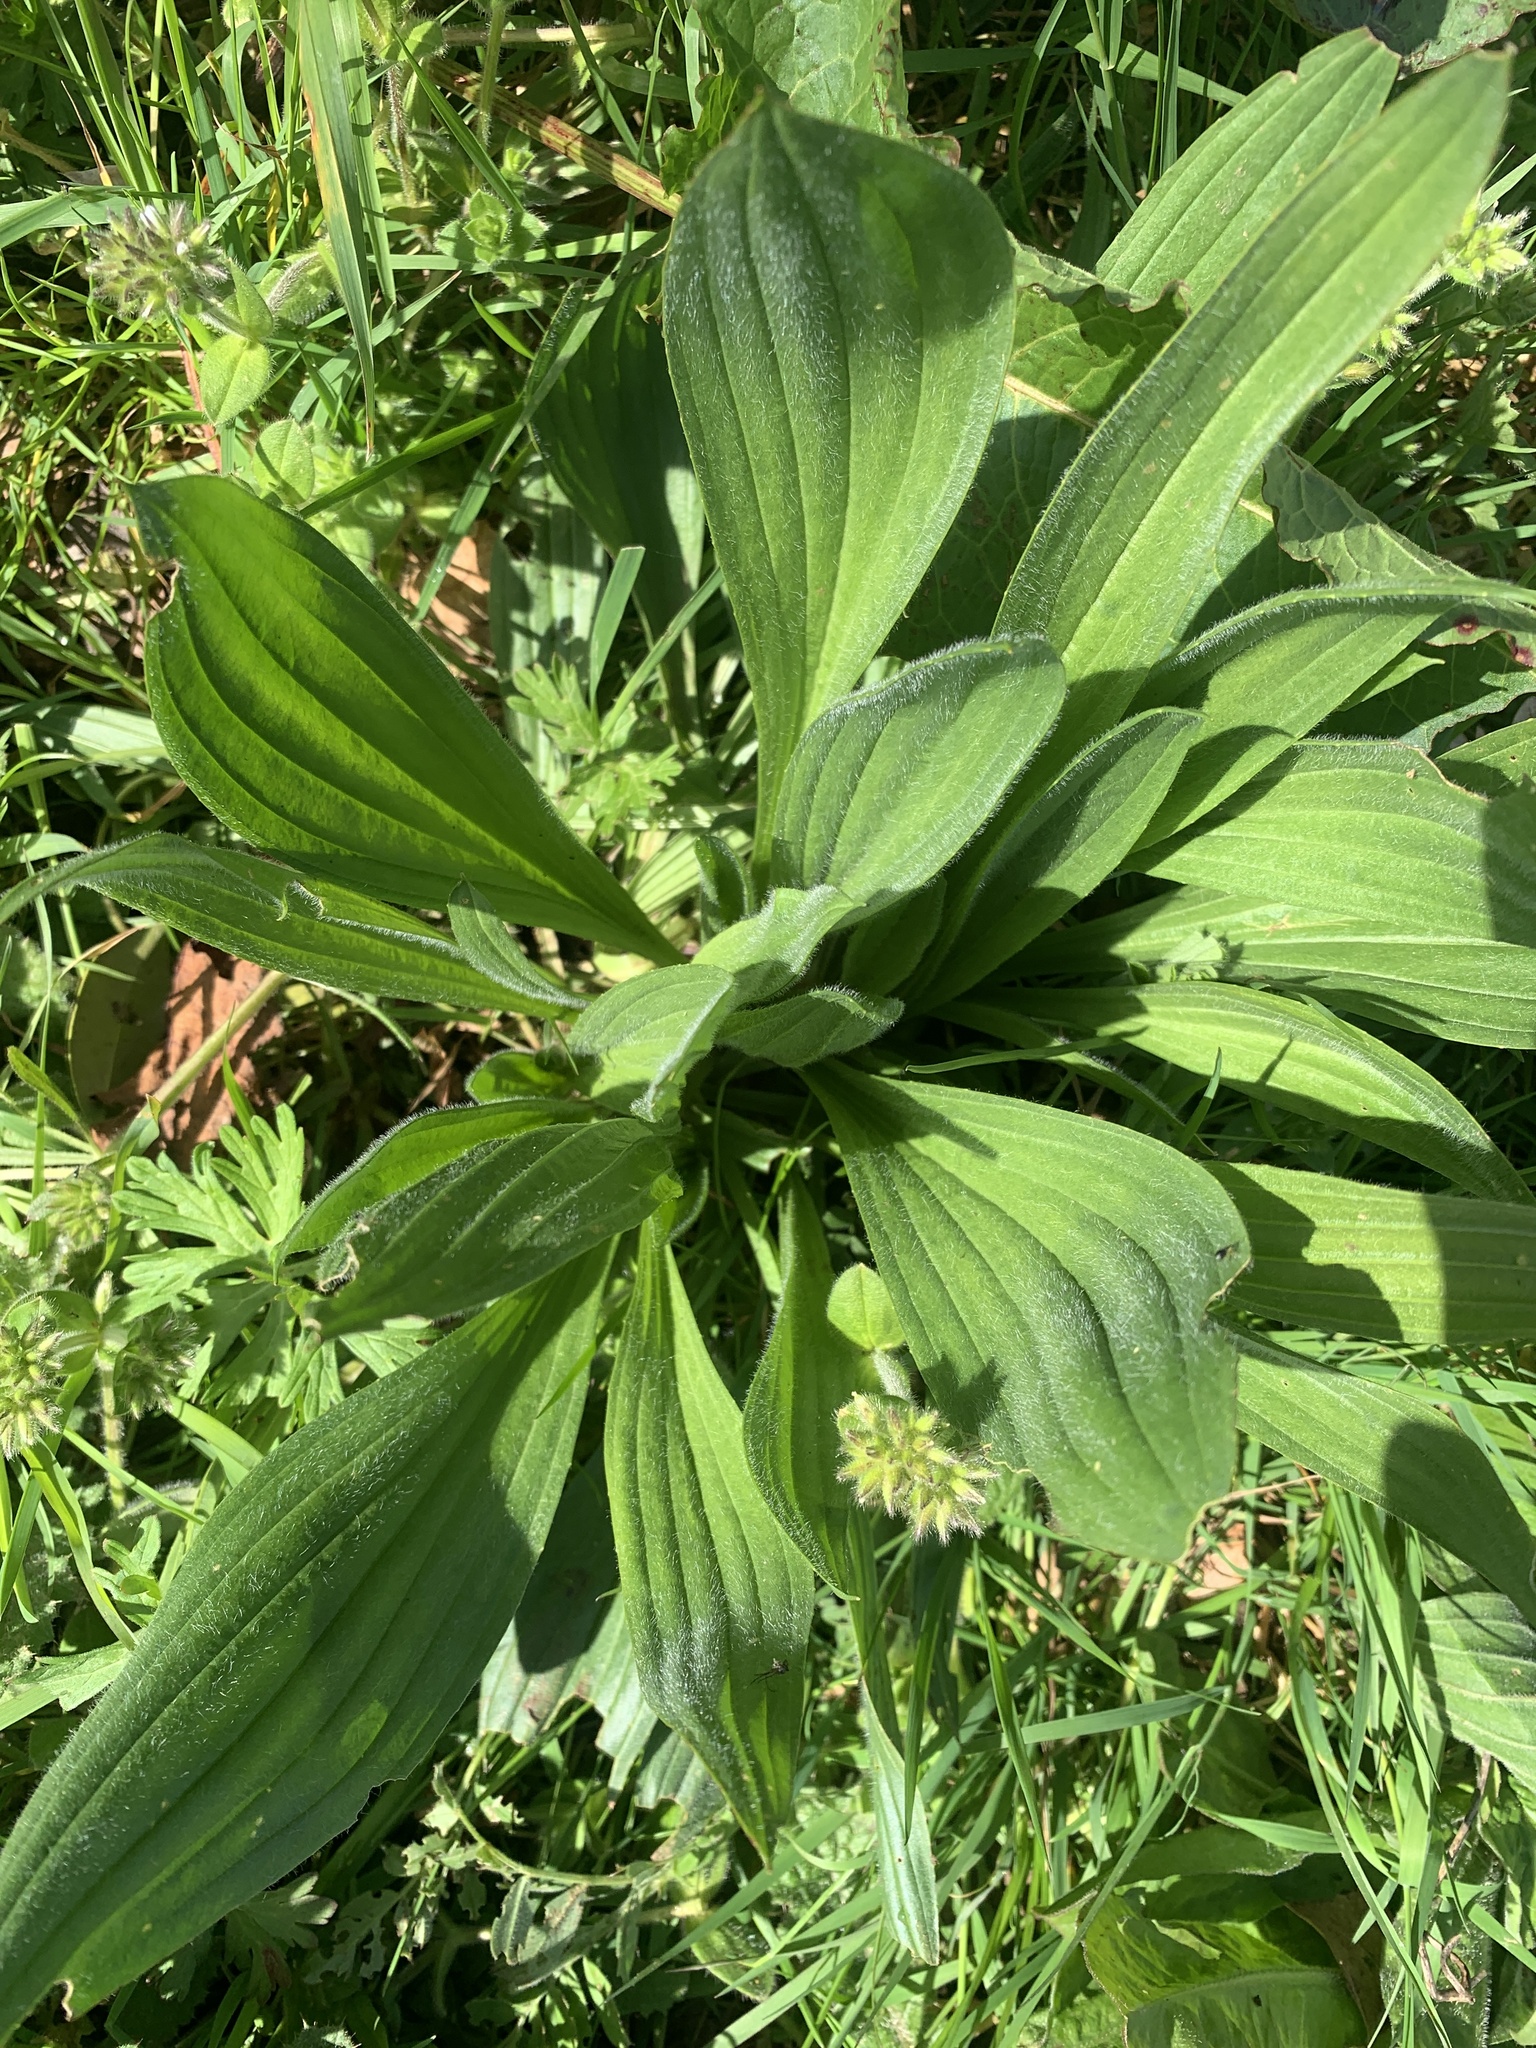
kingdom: Plantae
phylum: Tracheophyta
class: Magnoliopsida
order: Lamiales
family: Plantaginaceae
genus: Plantago
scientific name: Plantago lanceolata
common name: Ribwort plantain
